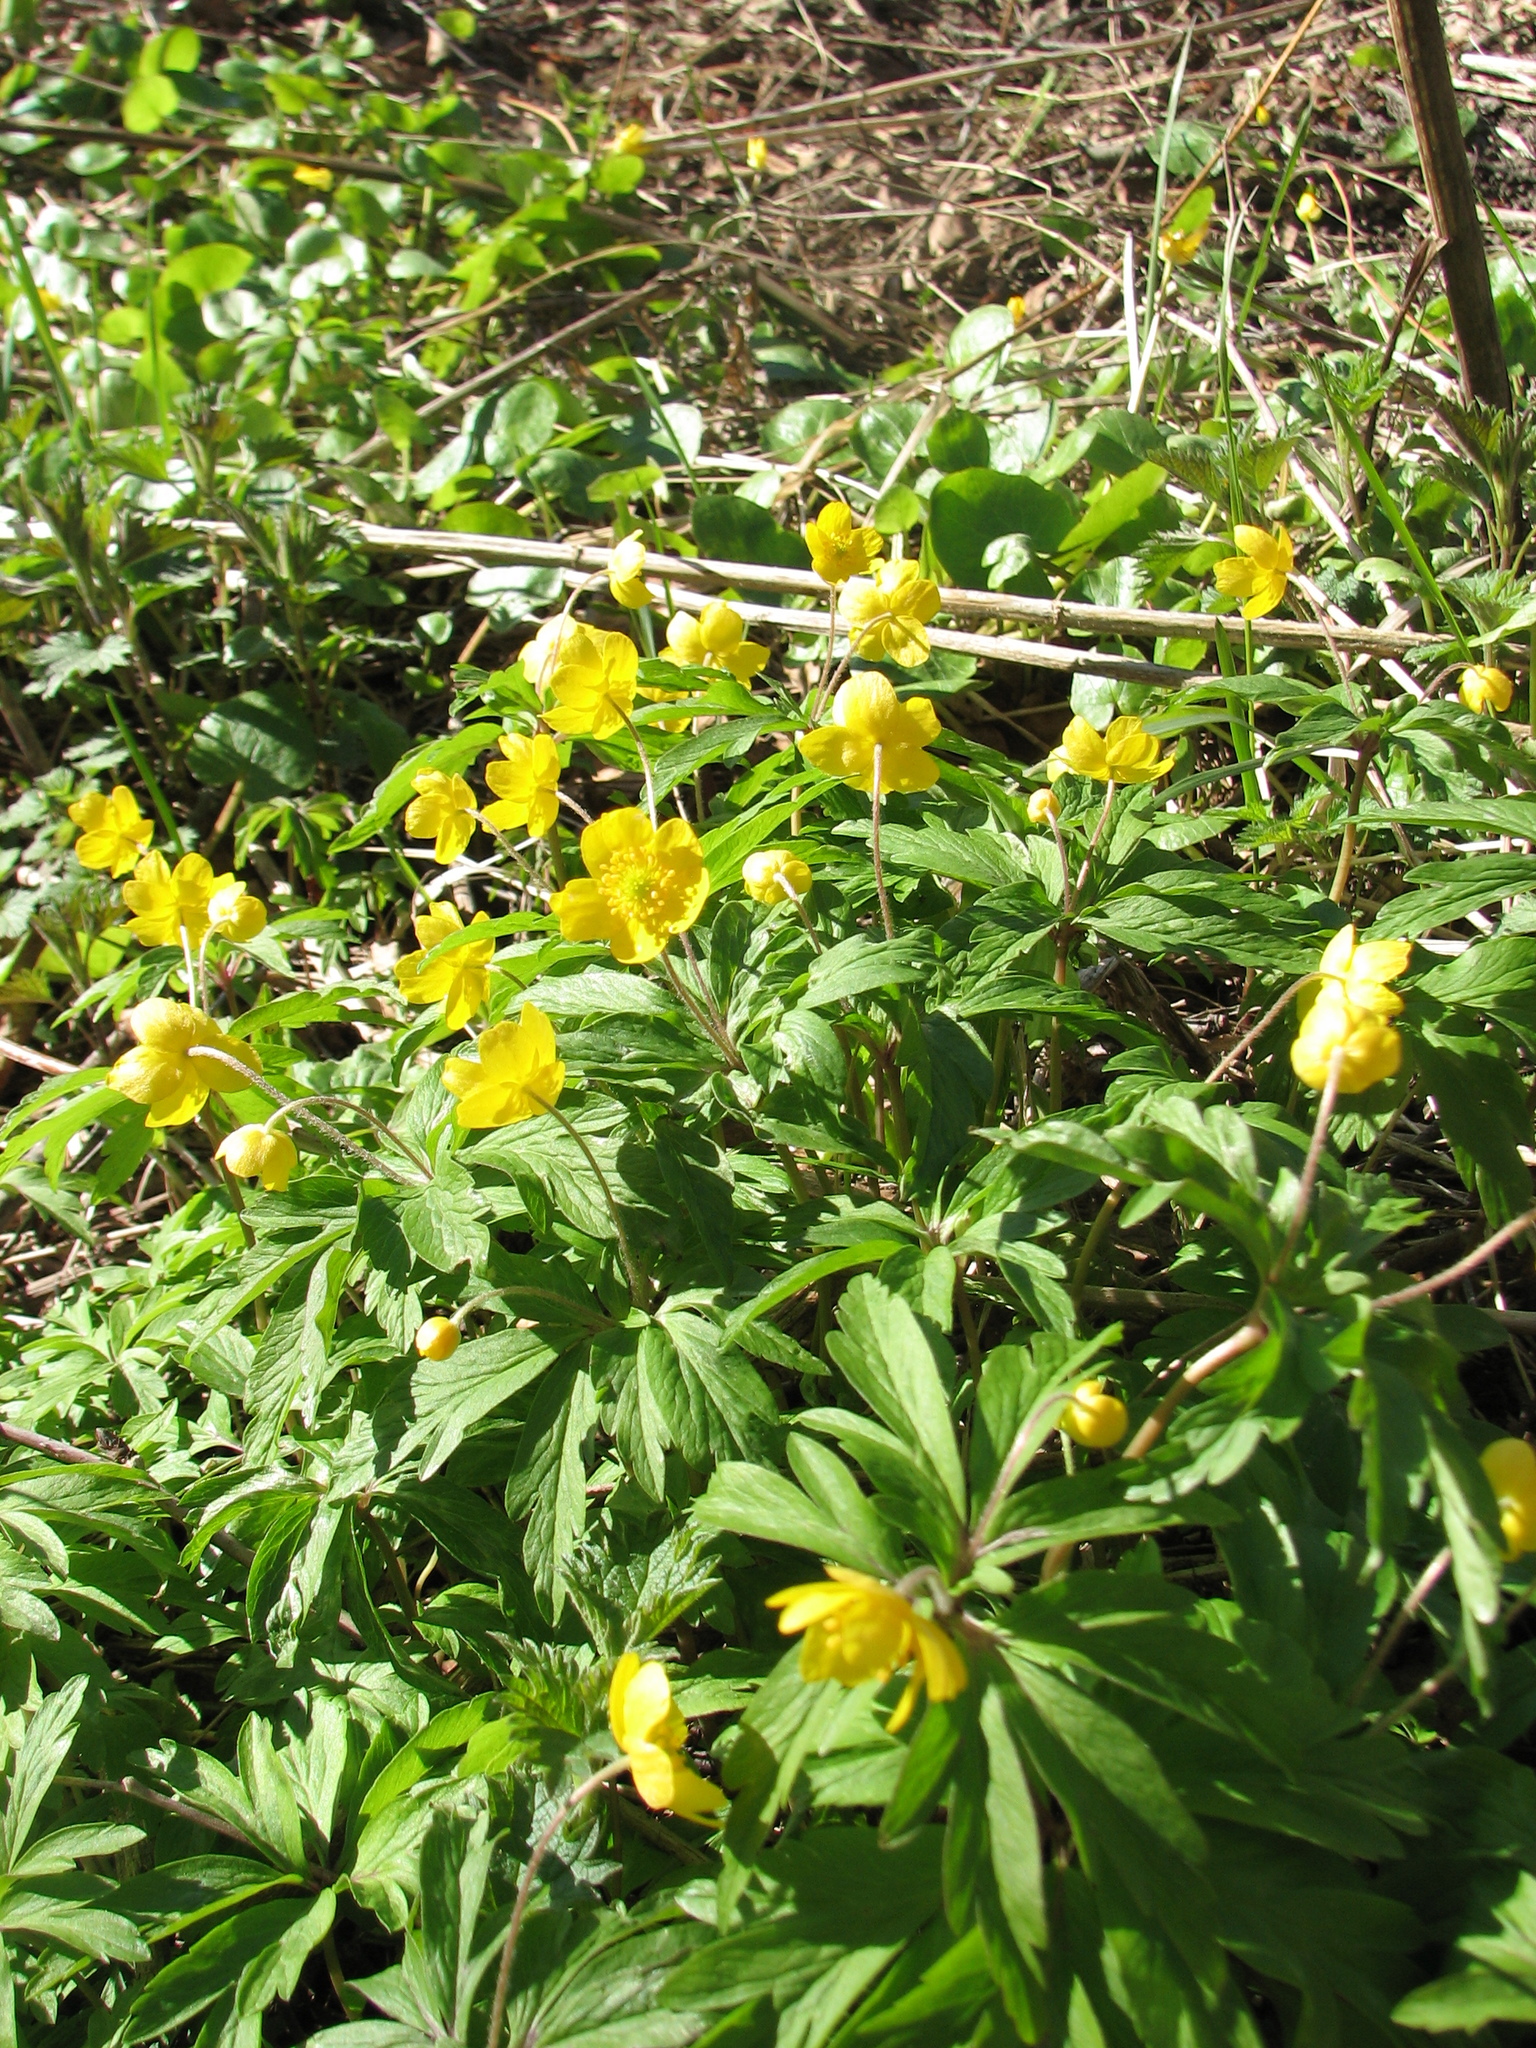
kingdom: Plantae
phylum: Tracheophyta
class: Magnoliopsida
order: Ranunculales
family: Ranunculaceae
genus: Anemone
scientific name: Anemone ranunculoides
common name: Yellow anemone
